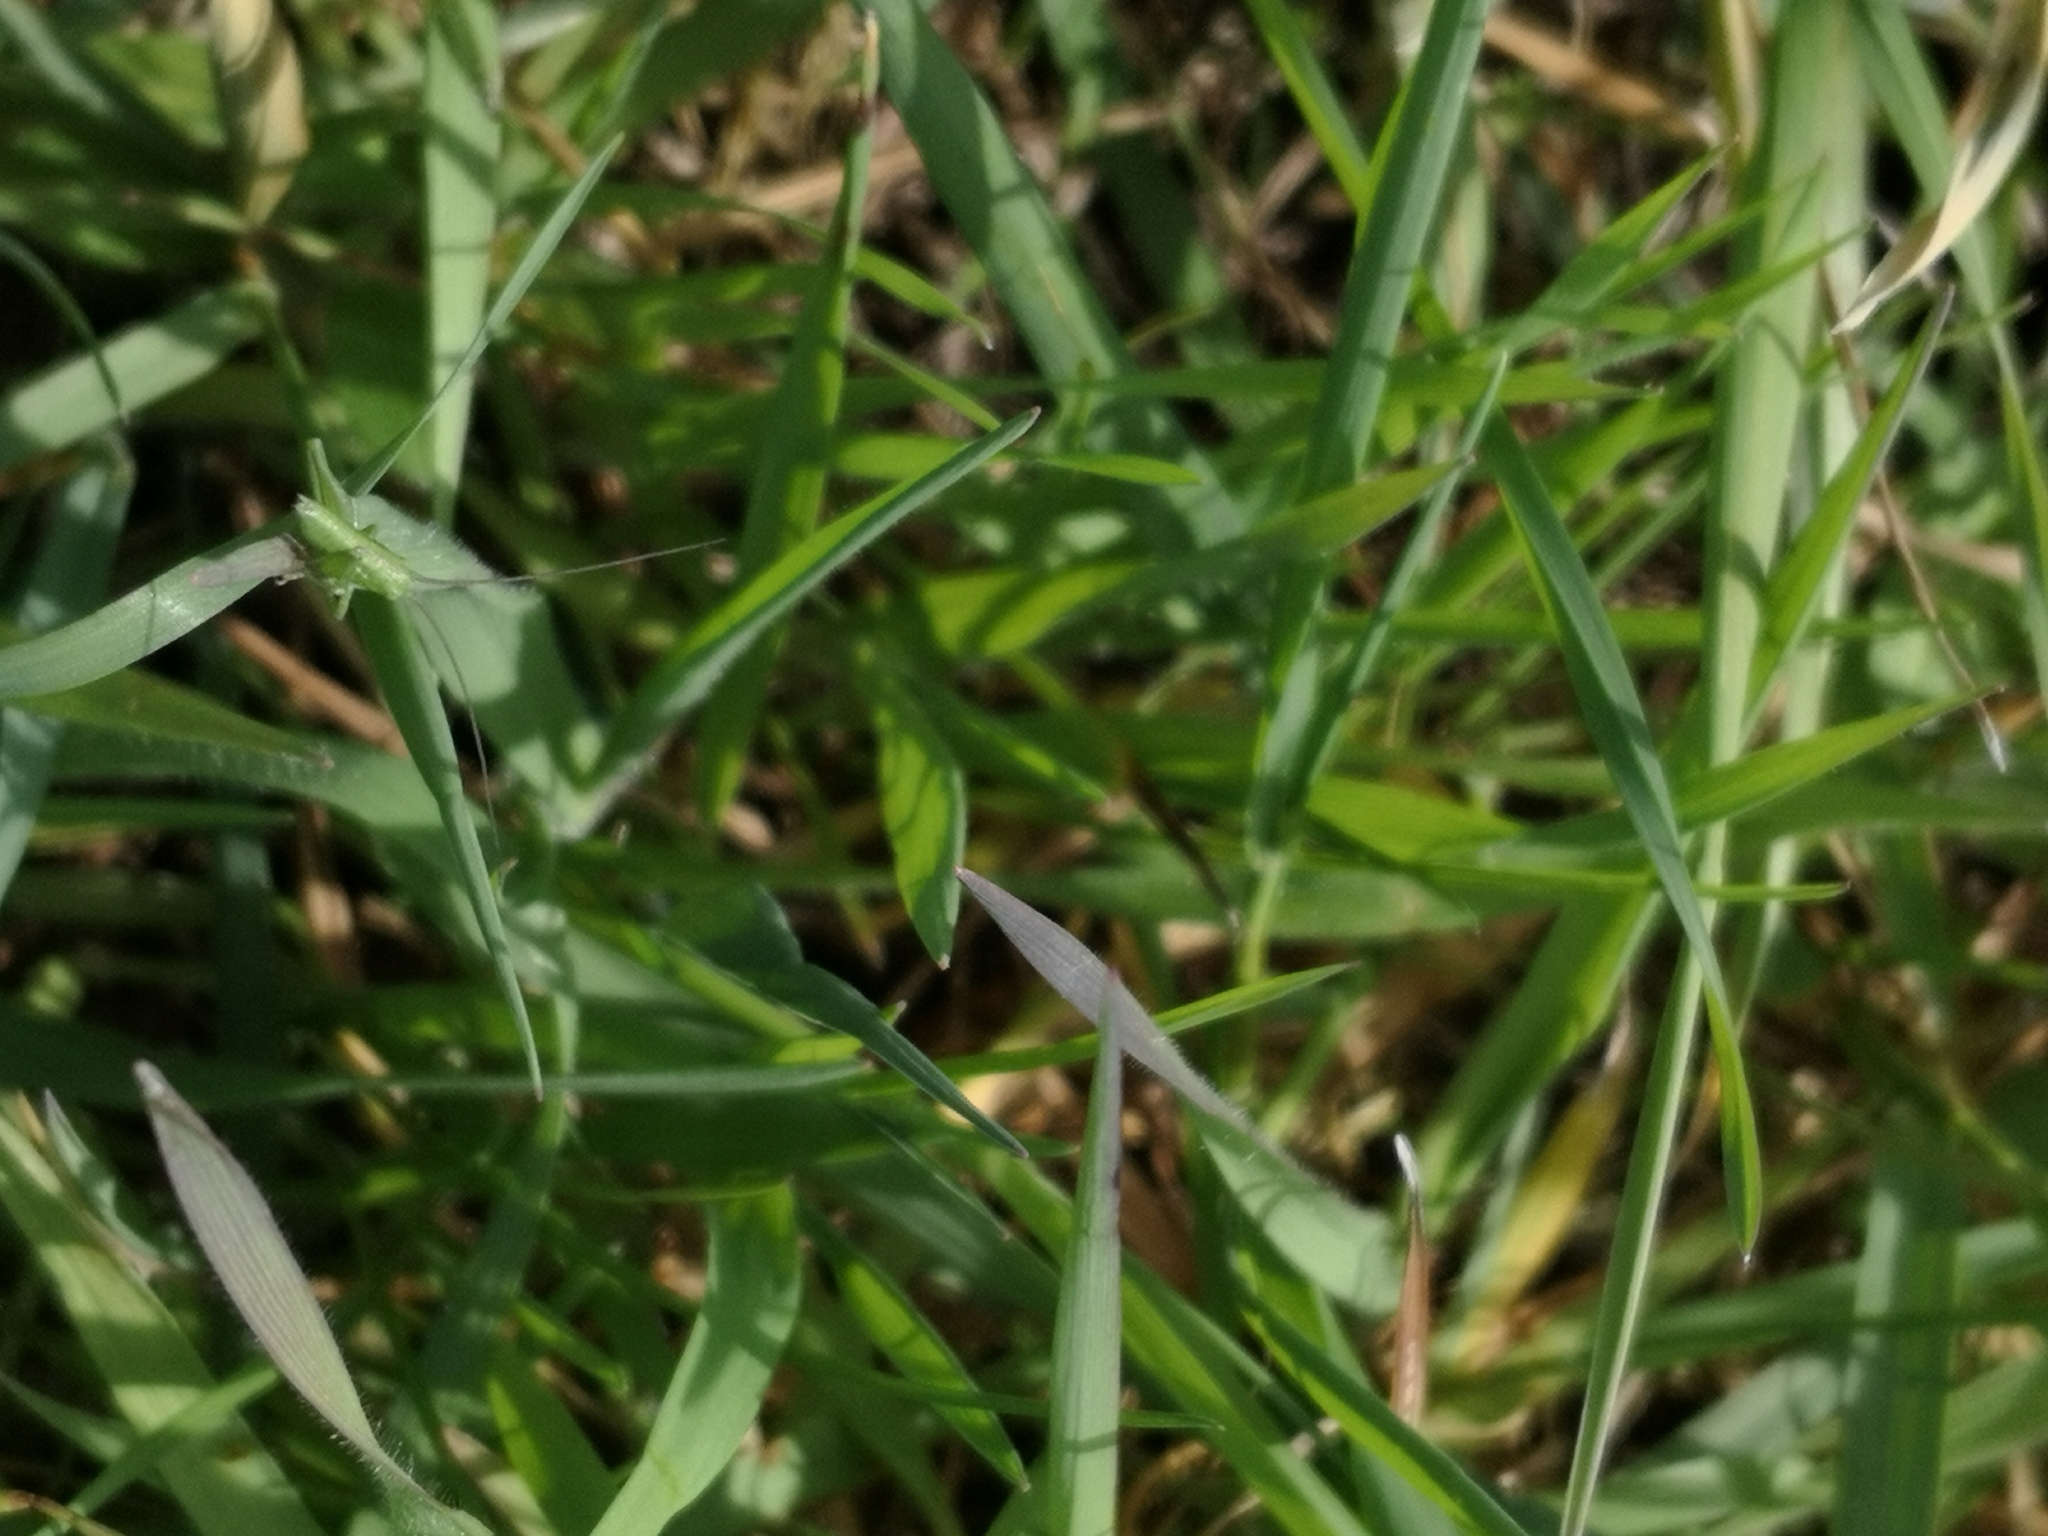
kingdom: Animalia
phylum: Arthropoda
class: Insecta
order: Orthoptera
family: Tettigoniidae
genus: Tettigonia
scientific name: Tettigonia viridissima
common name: Great green bush-cricket
